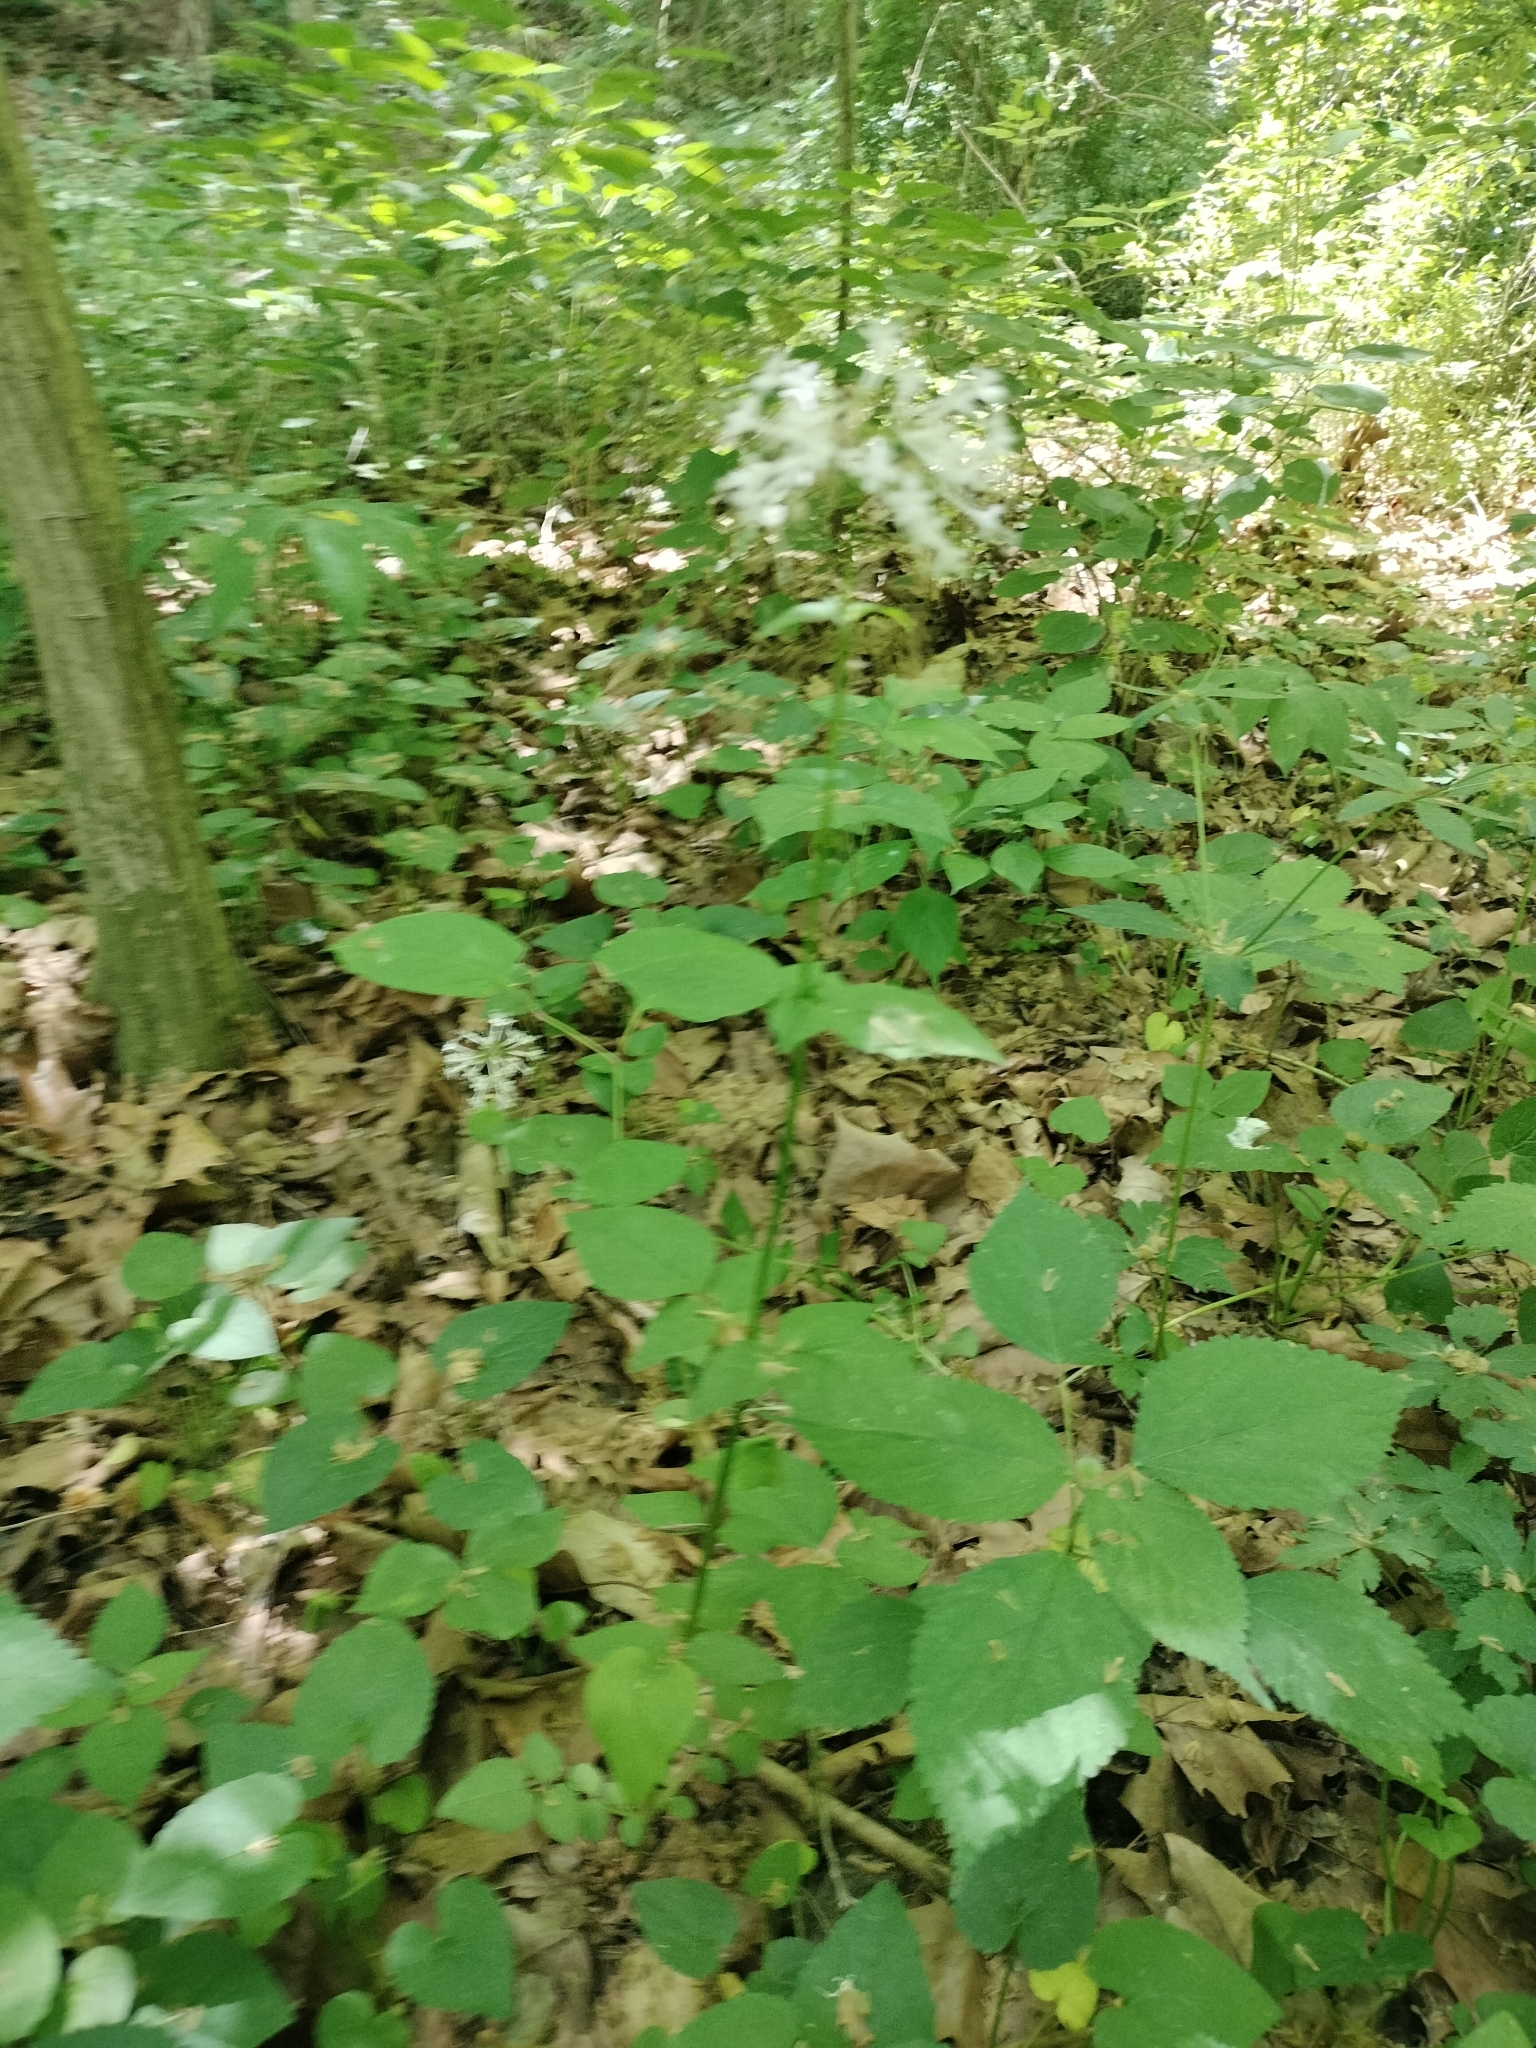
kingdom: Plantae
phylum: Tracheophyta
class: Magnoliopsida
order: Dipsacales
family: Caprifoliaceae
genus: Valeriana
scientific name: Valeriana pauciflora
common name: Long-tube valeriana
